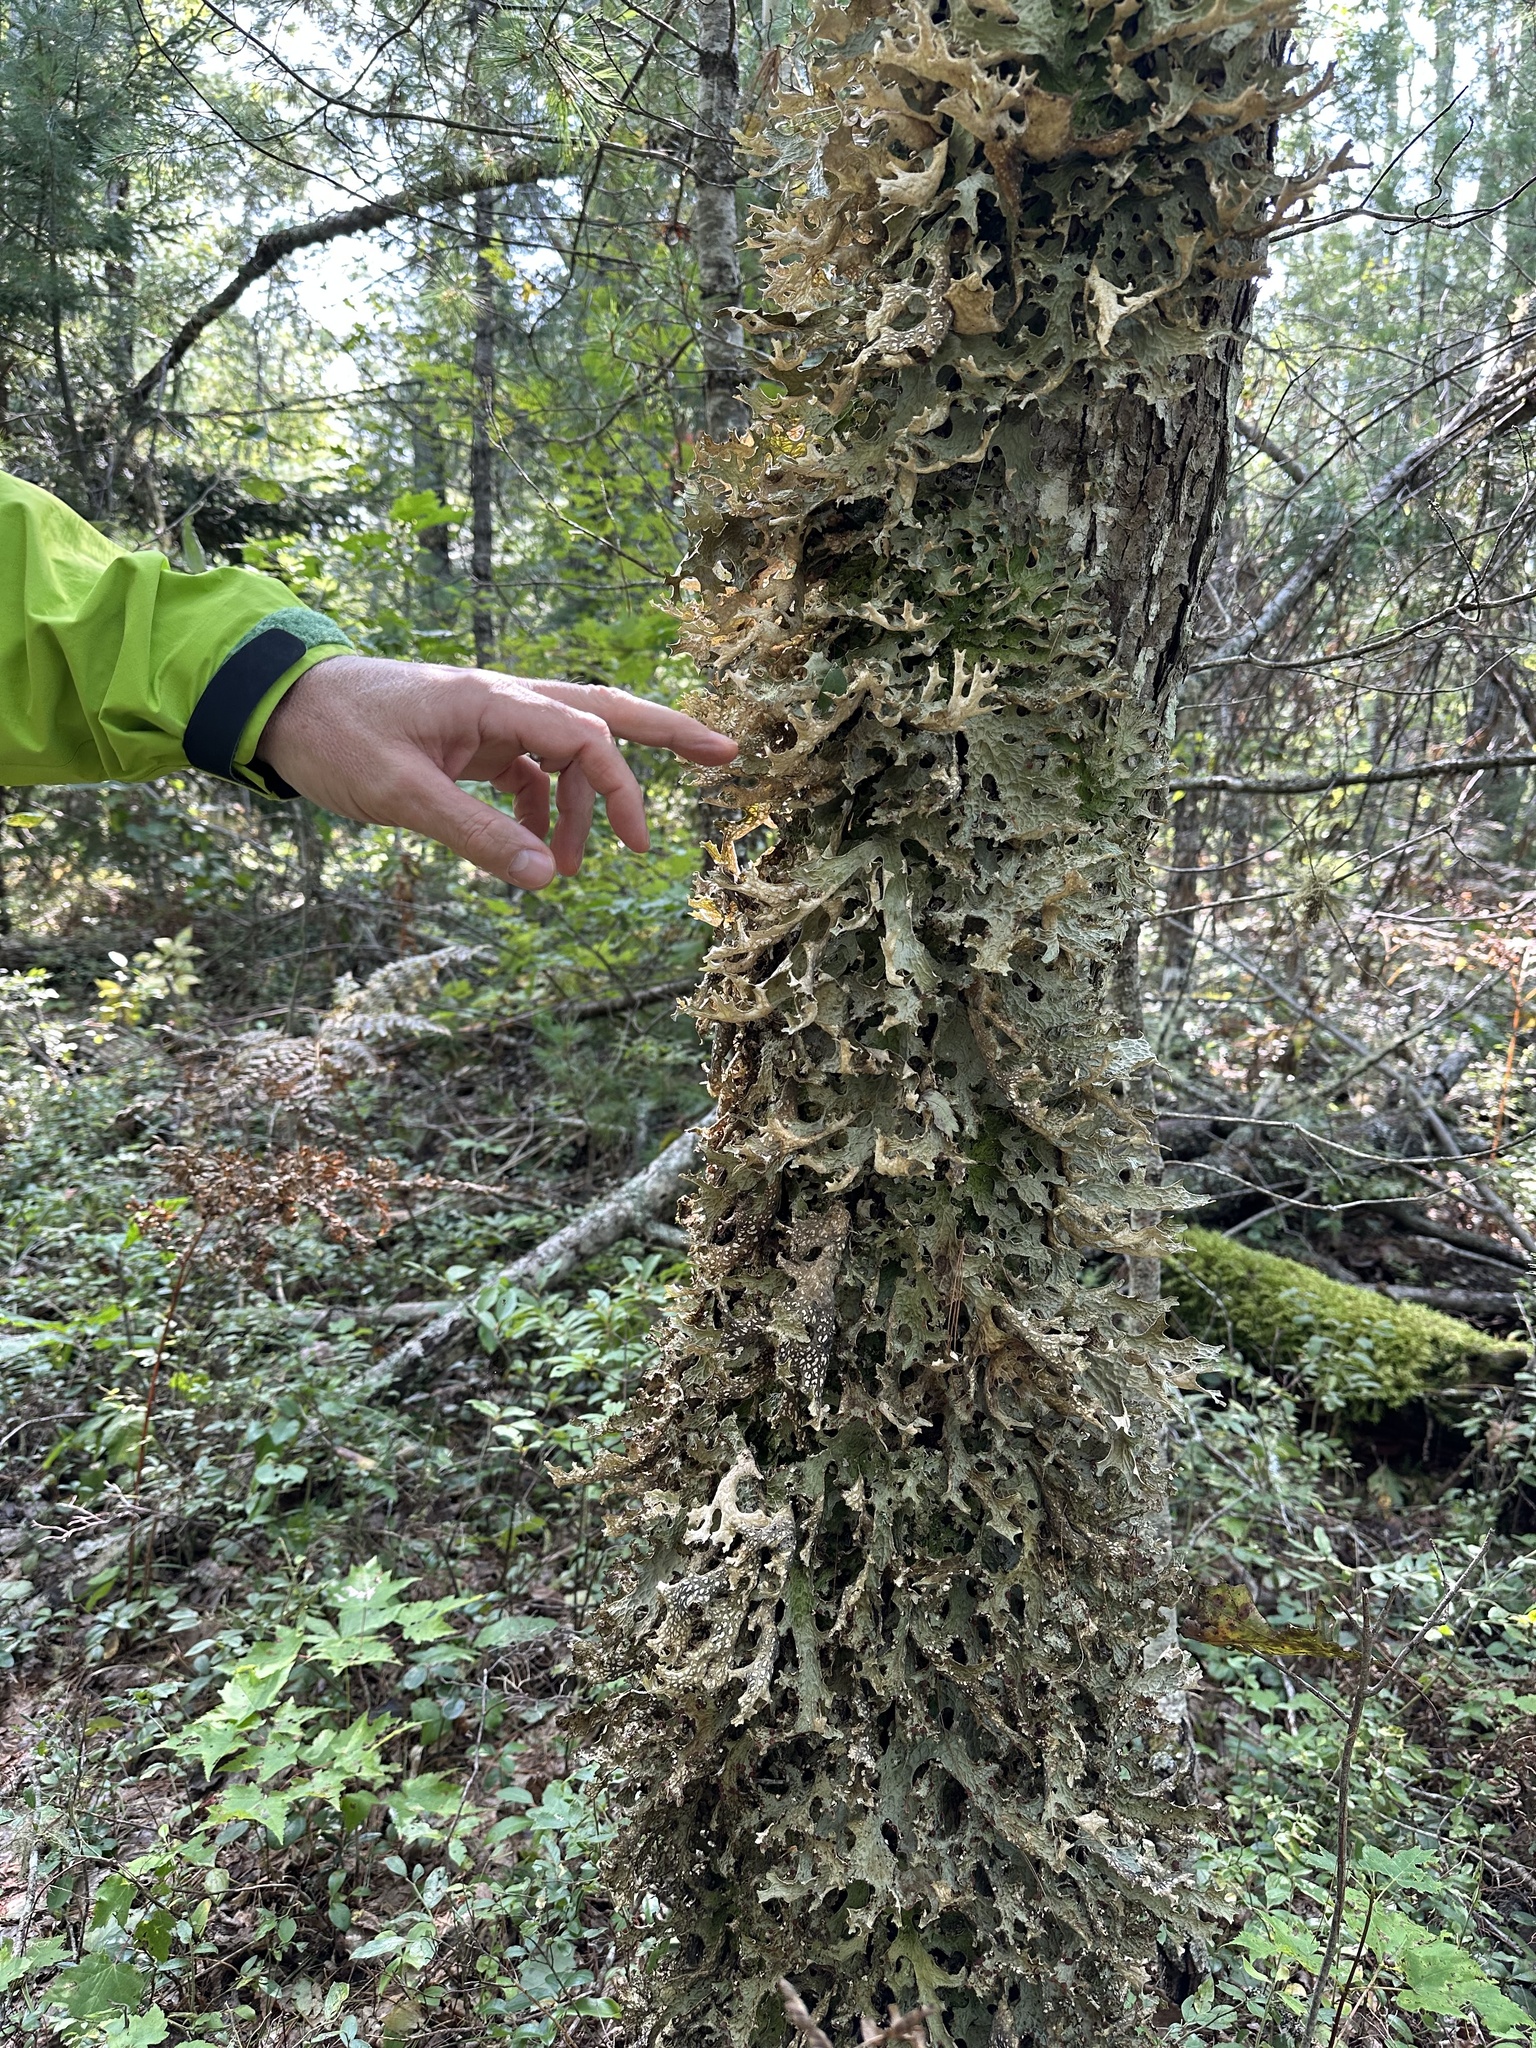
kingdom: Fungi
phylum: Ascomycota
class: Lecanoromycetes
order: Peltigerales
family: Lobariaceae
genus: Lobaria
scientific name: Lobaria pulmonaria
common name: Lungwort
